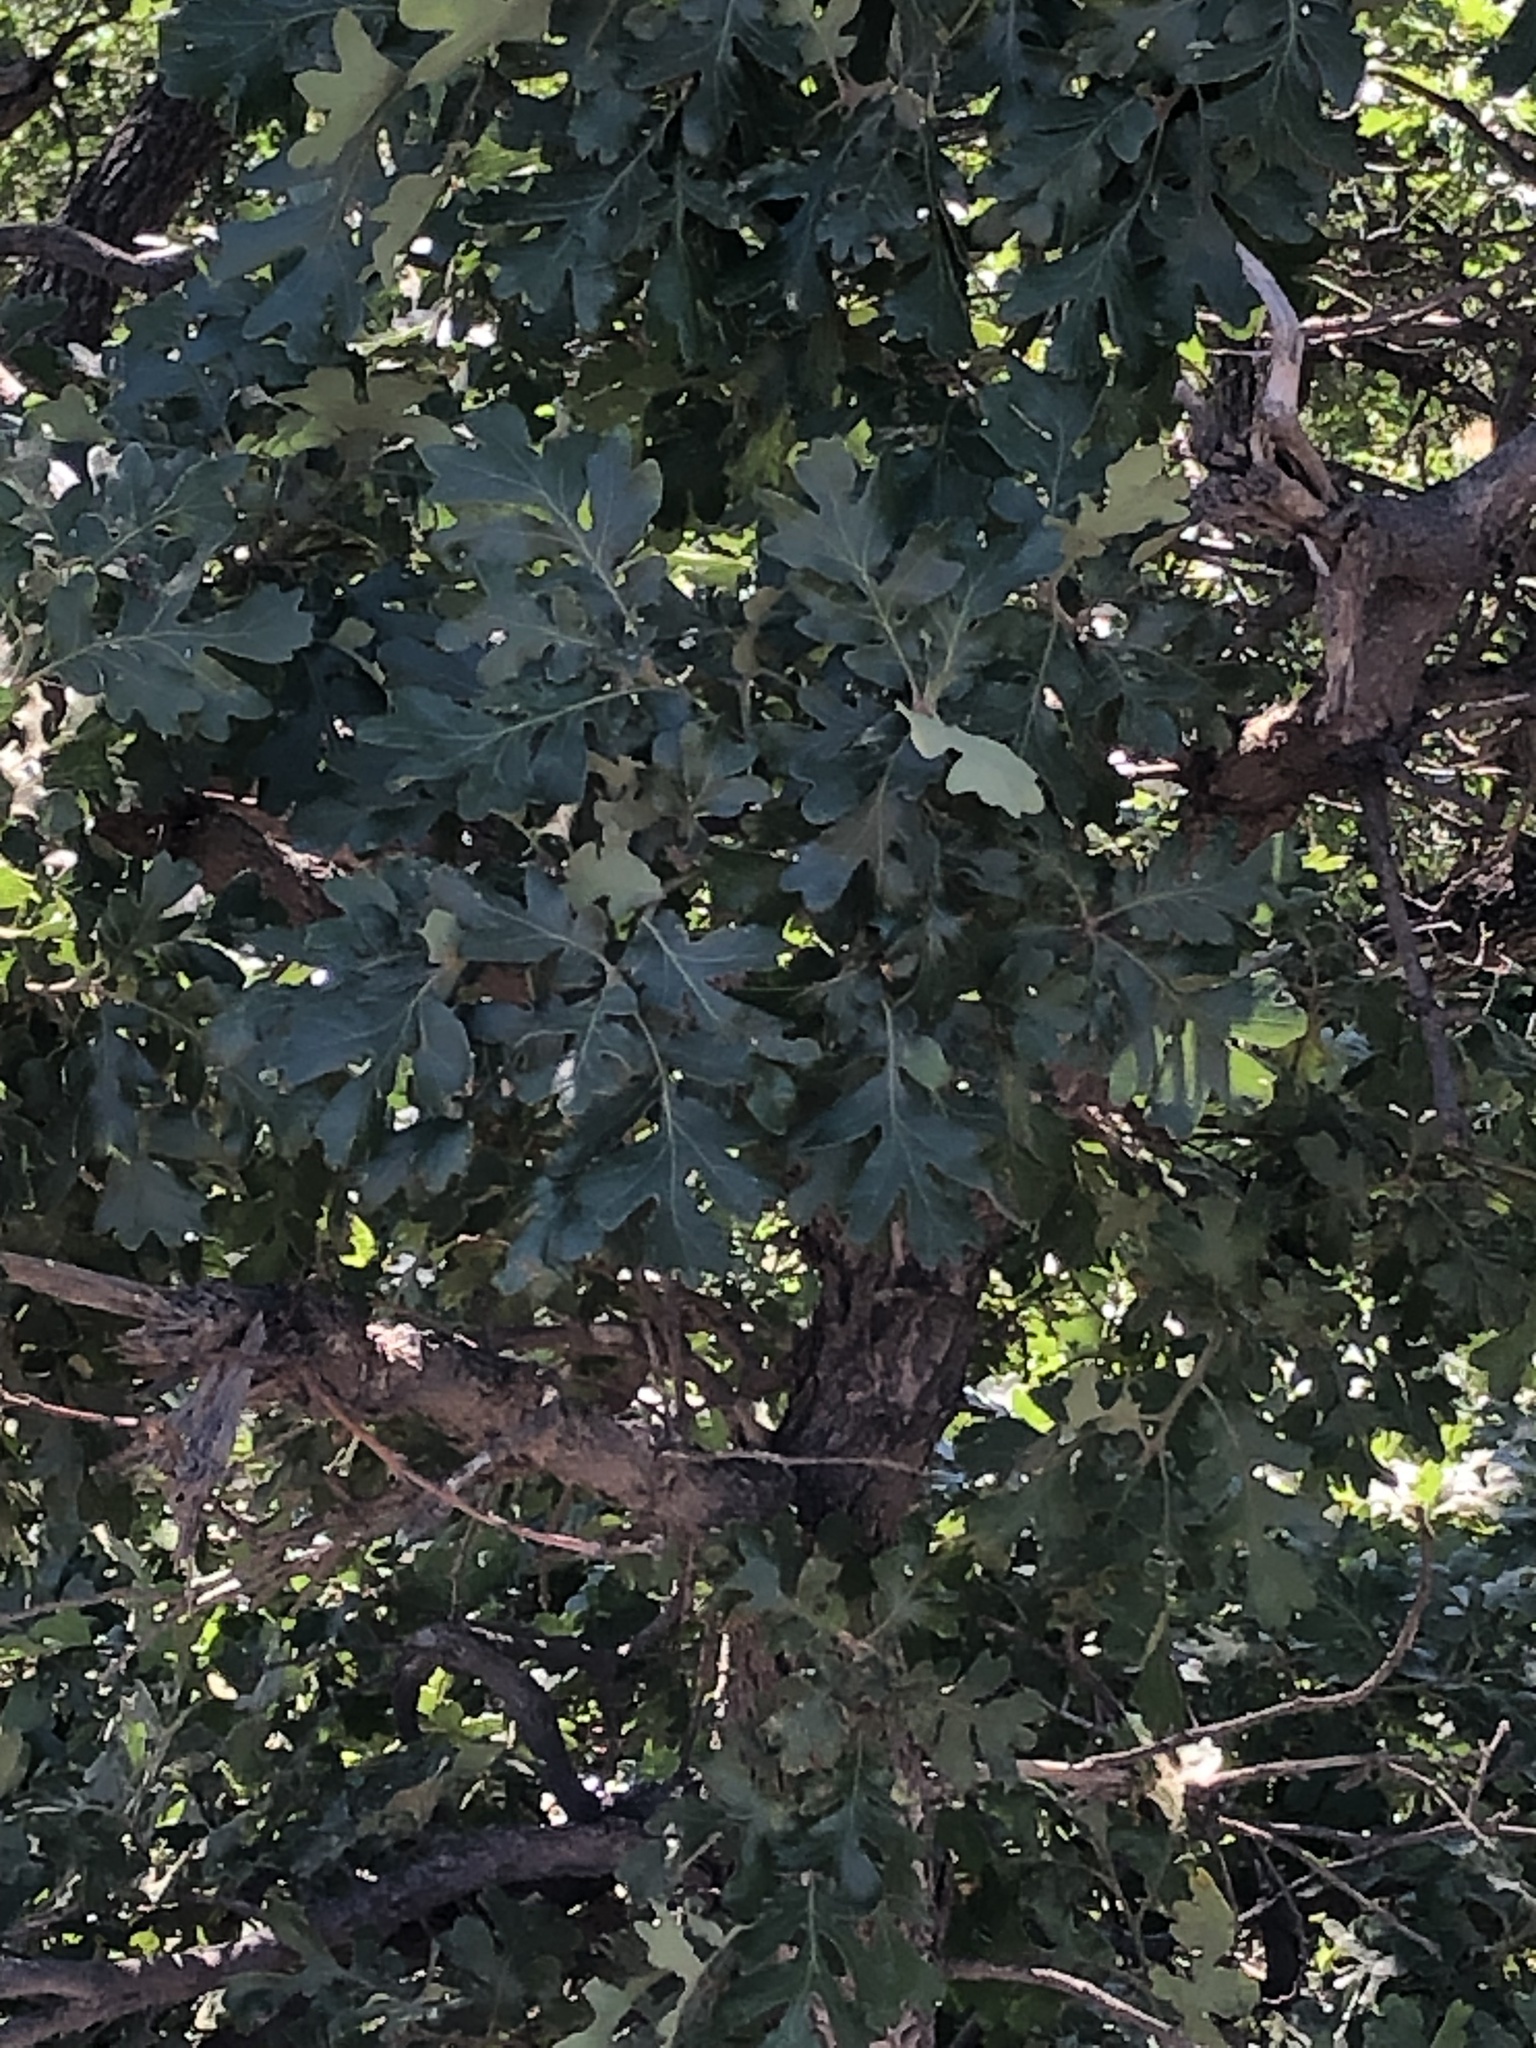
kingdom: Plantae
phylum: Tracheophyta
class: Magnoliopsida
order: Fagales
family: Fagaceae
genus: Quercus
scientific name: Quercus garryana
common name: Garry oak
